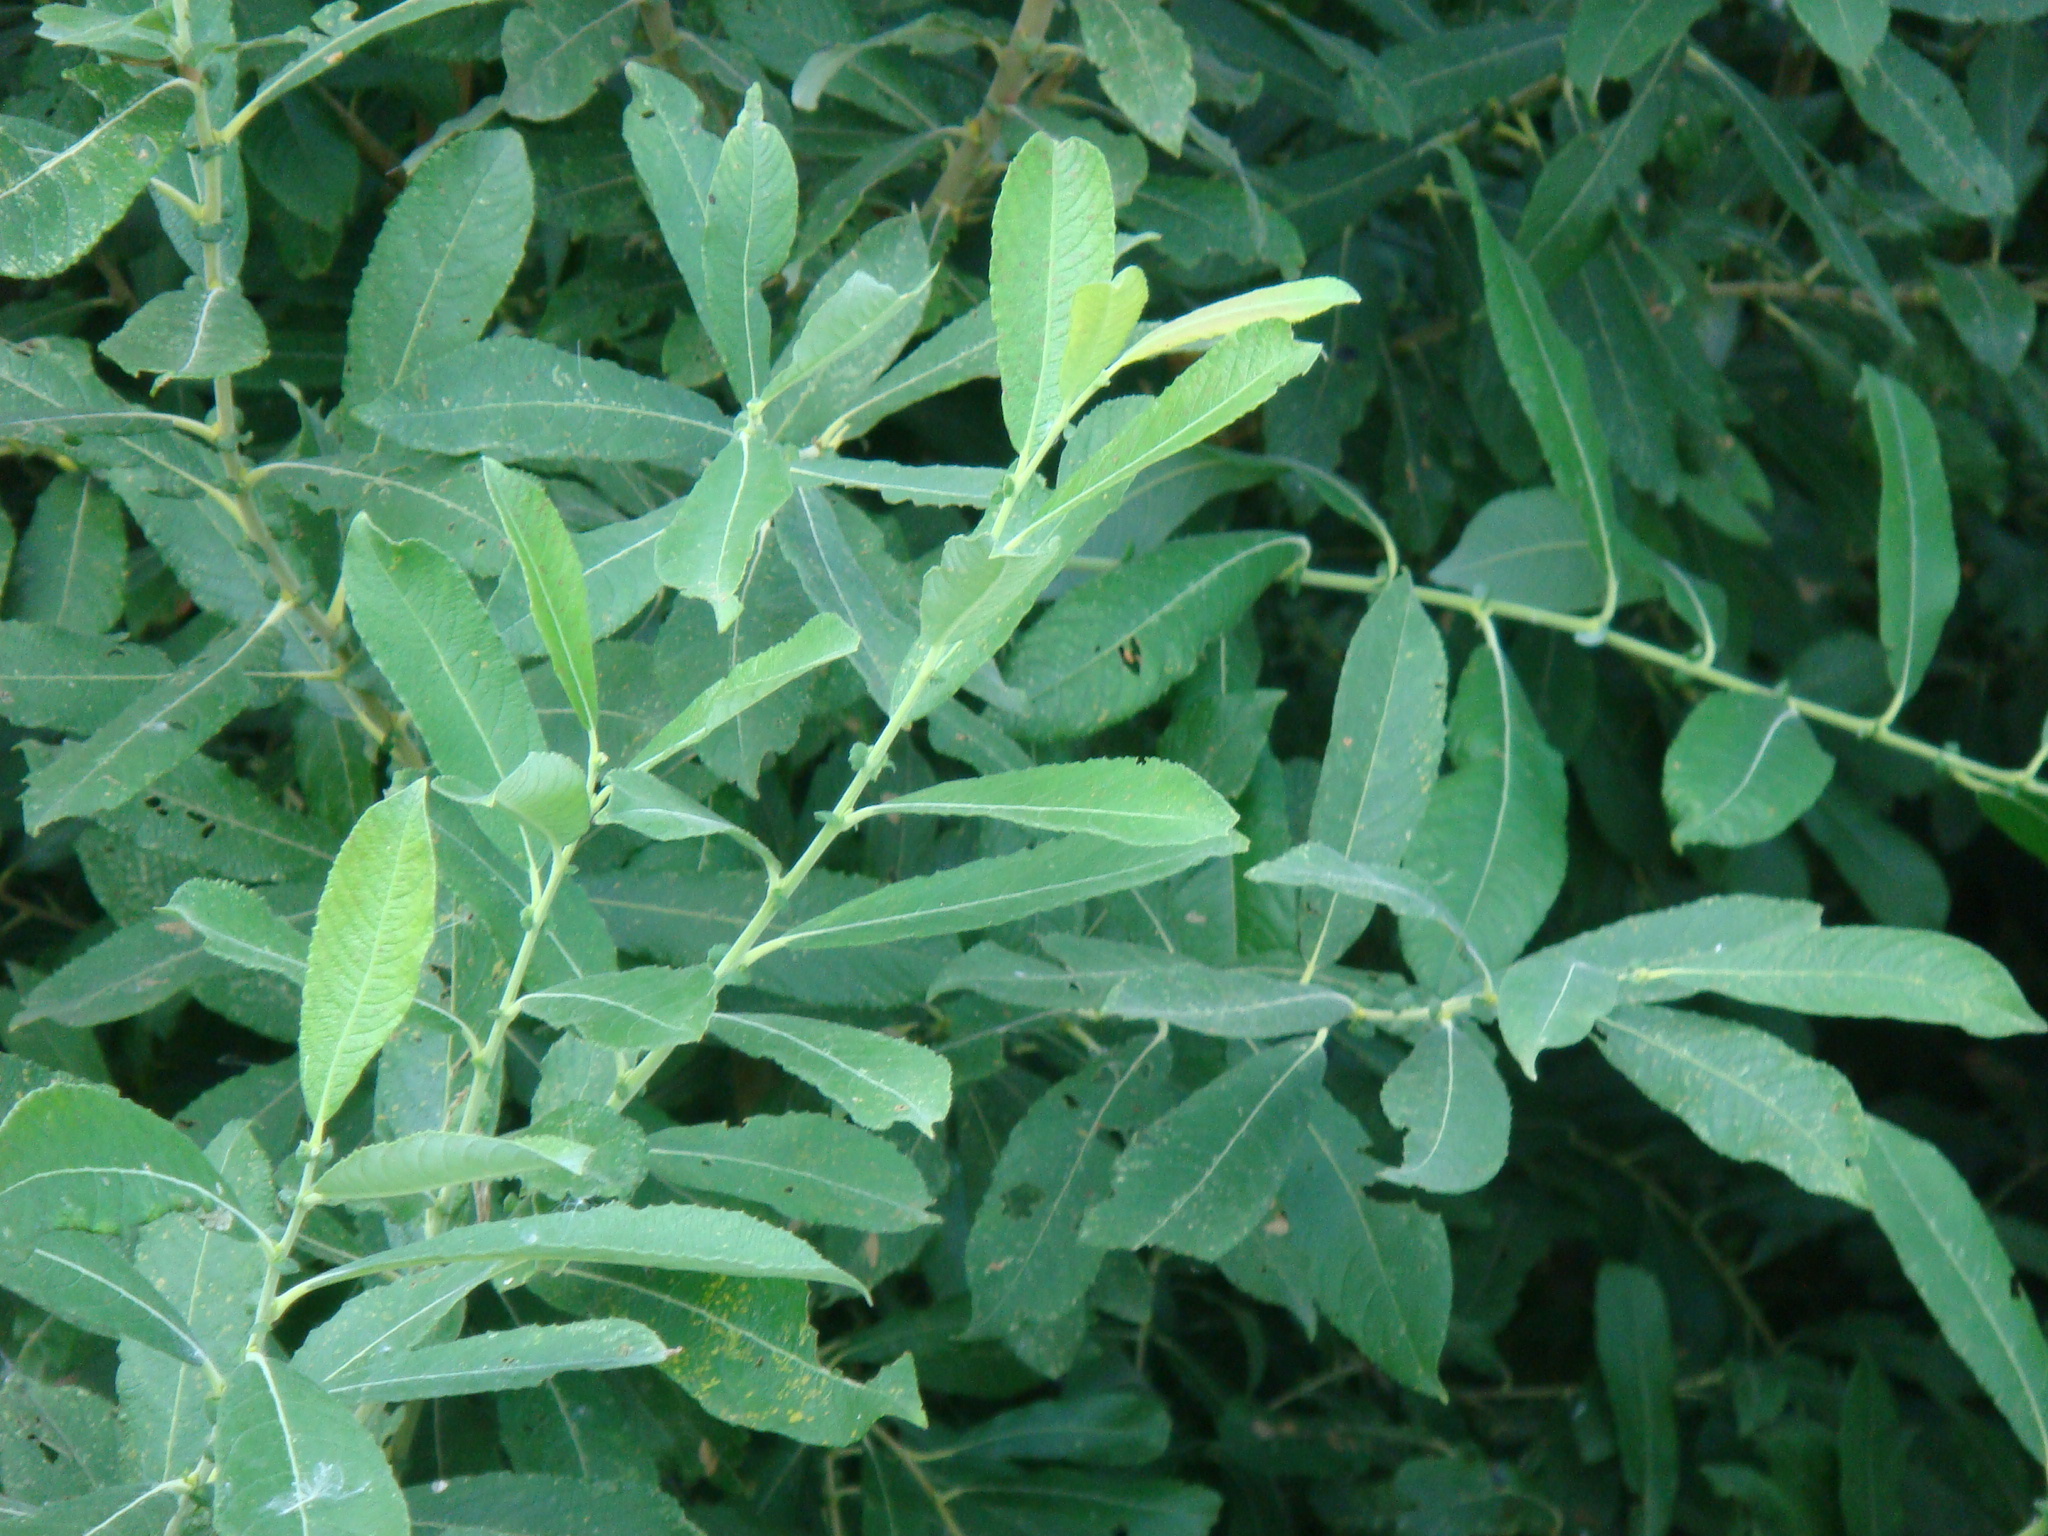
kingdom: Plantae
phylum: Tracheophyta
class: Magnoliopsida
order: Malpighiales
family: Salicaceae
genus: Salix
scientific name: Salix cinerea
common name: Common sallow
